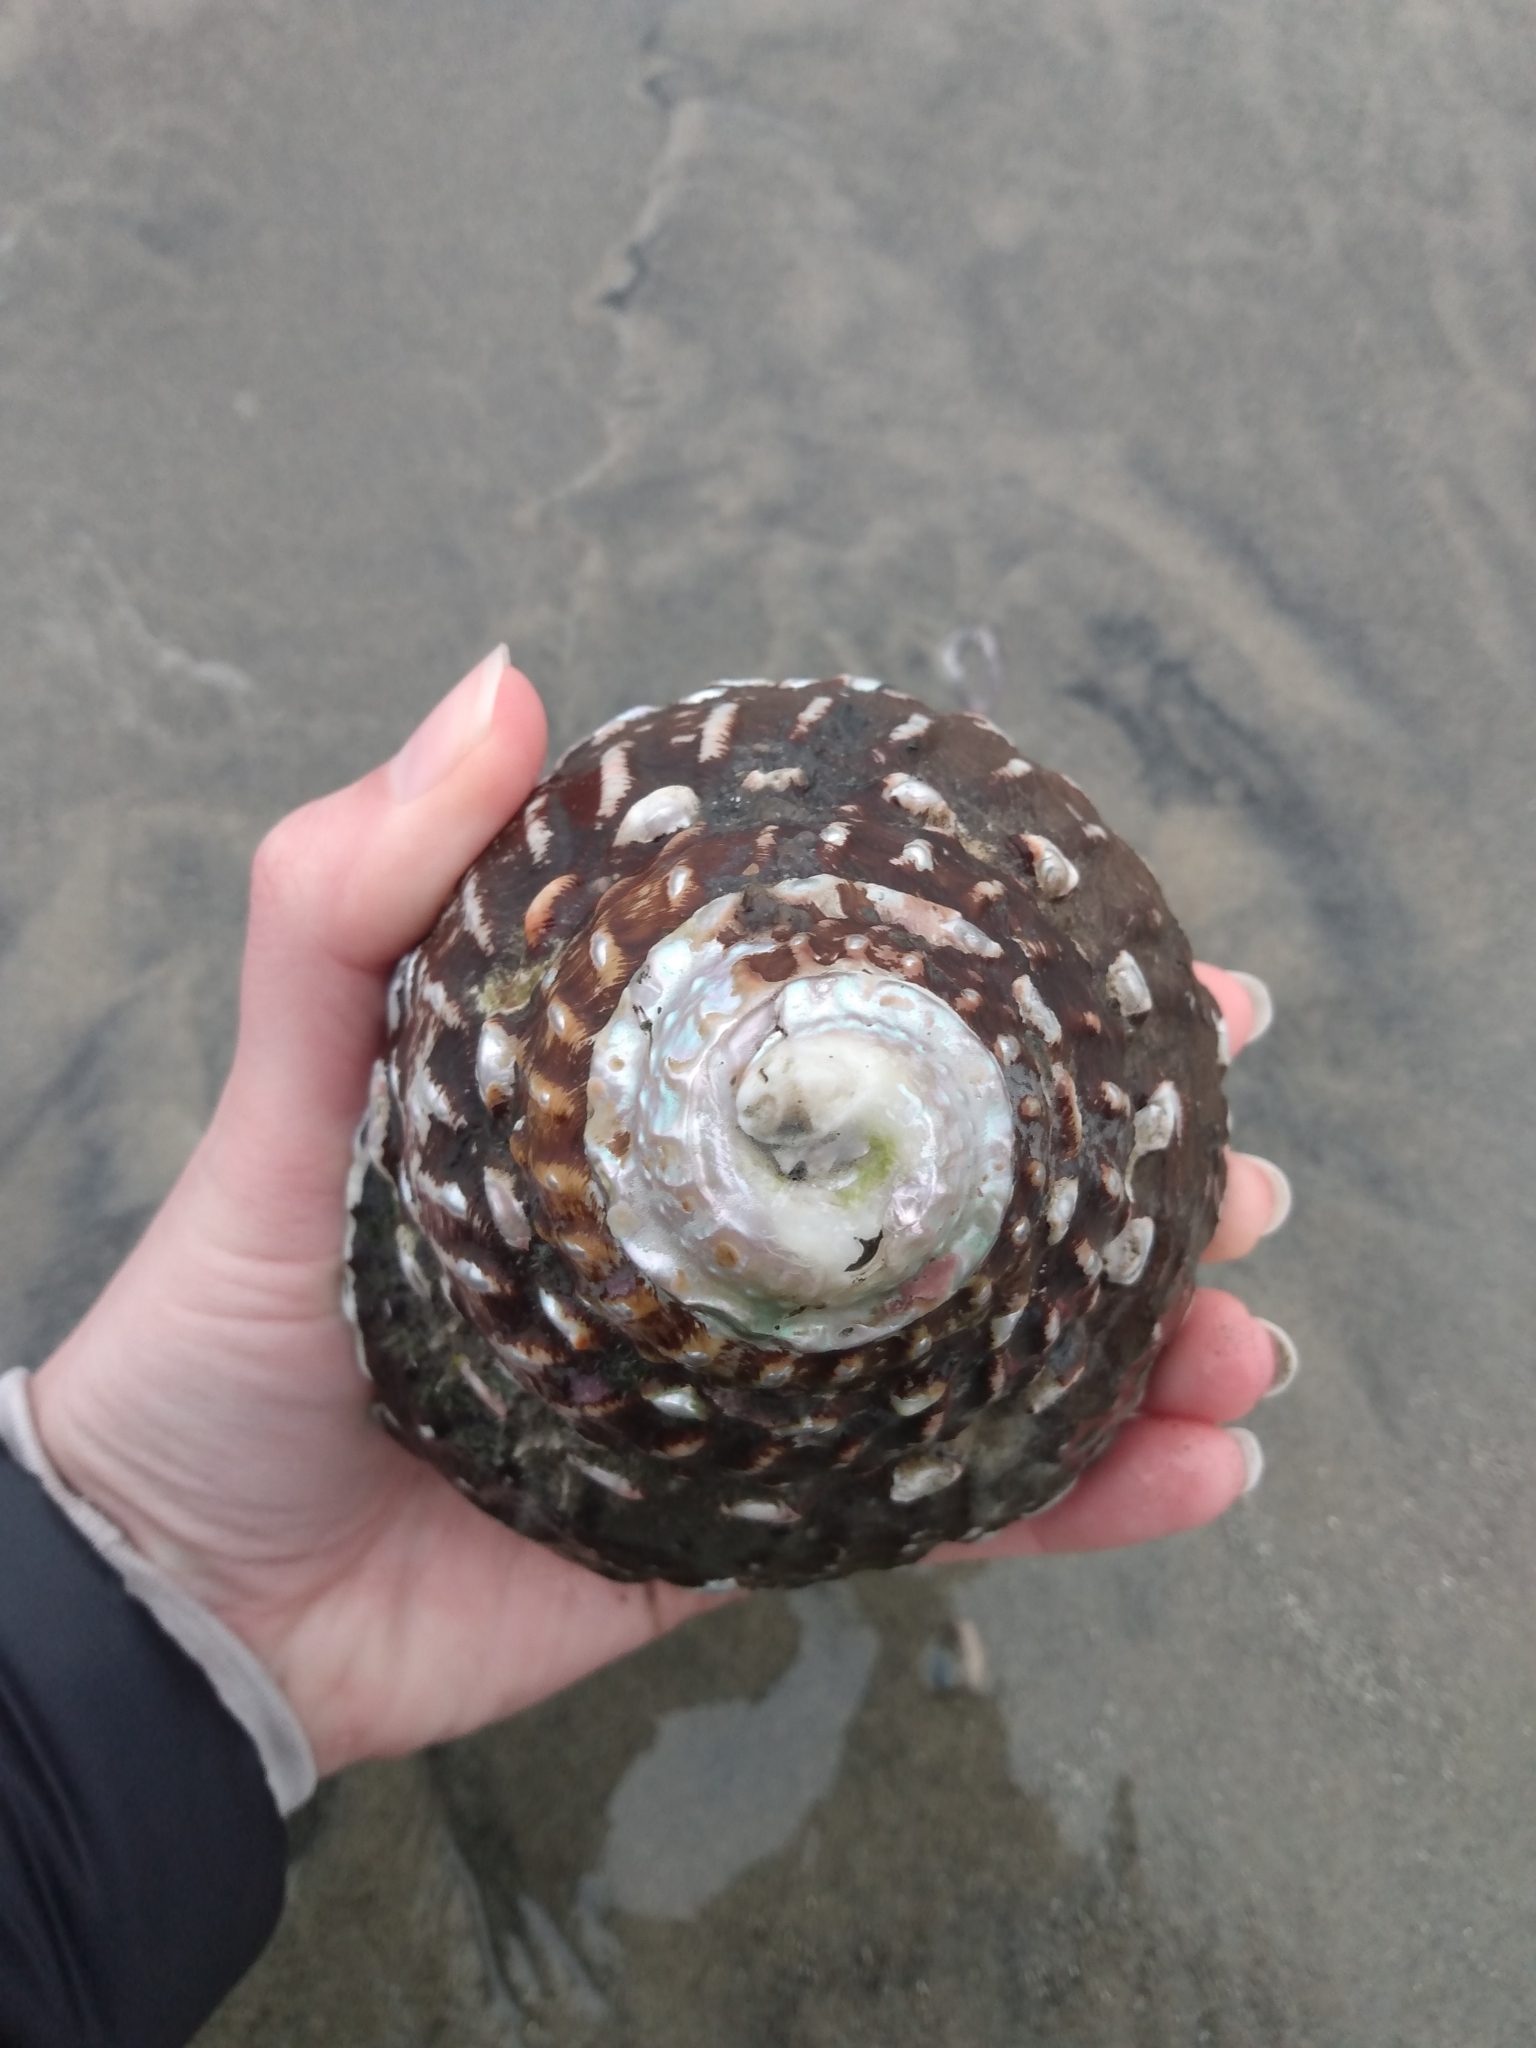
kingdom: Animalia
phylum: Mollusca
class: Gastropoda
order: Trochida
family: Turbinidae
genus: Megastraea
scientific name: Megastraea undosa
